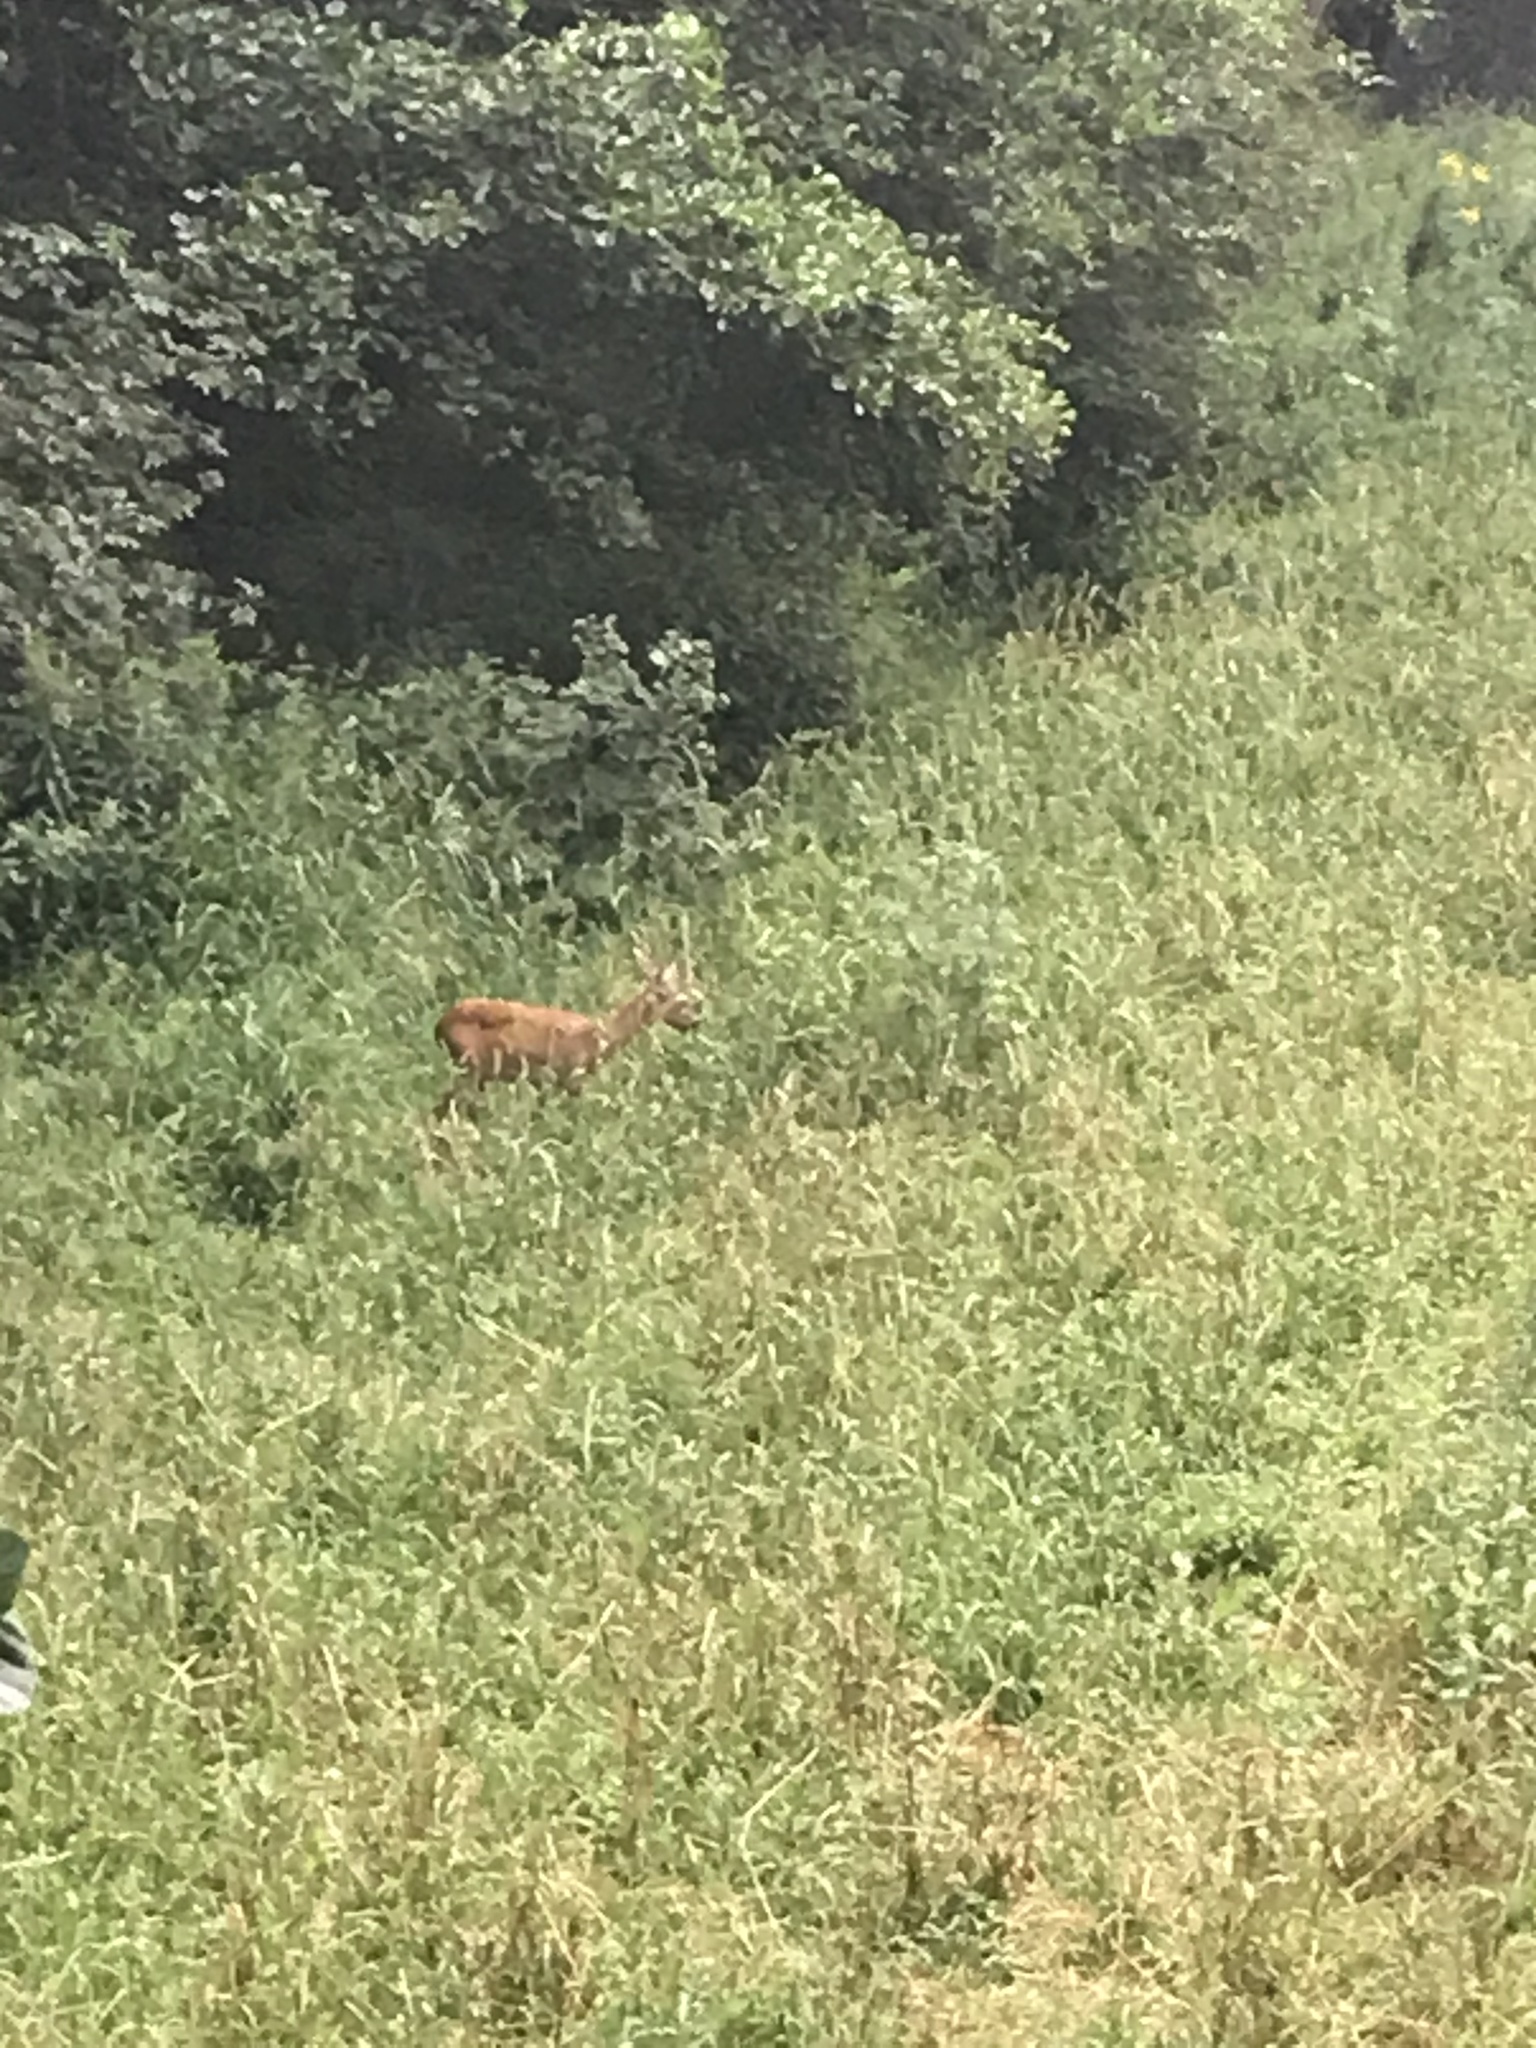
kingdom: Animalia
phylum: Chordata
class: Mammalia
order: Artiodactyla
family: Cervidae
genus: Capreolus
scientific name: Capreolus capreolus
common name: Western roe deer
